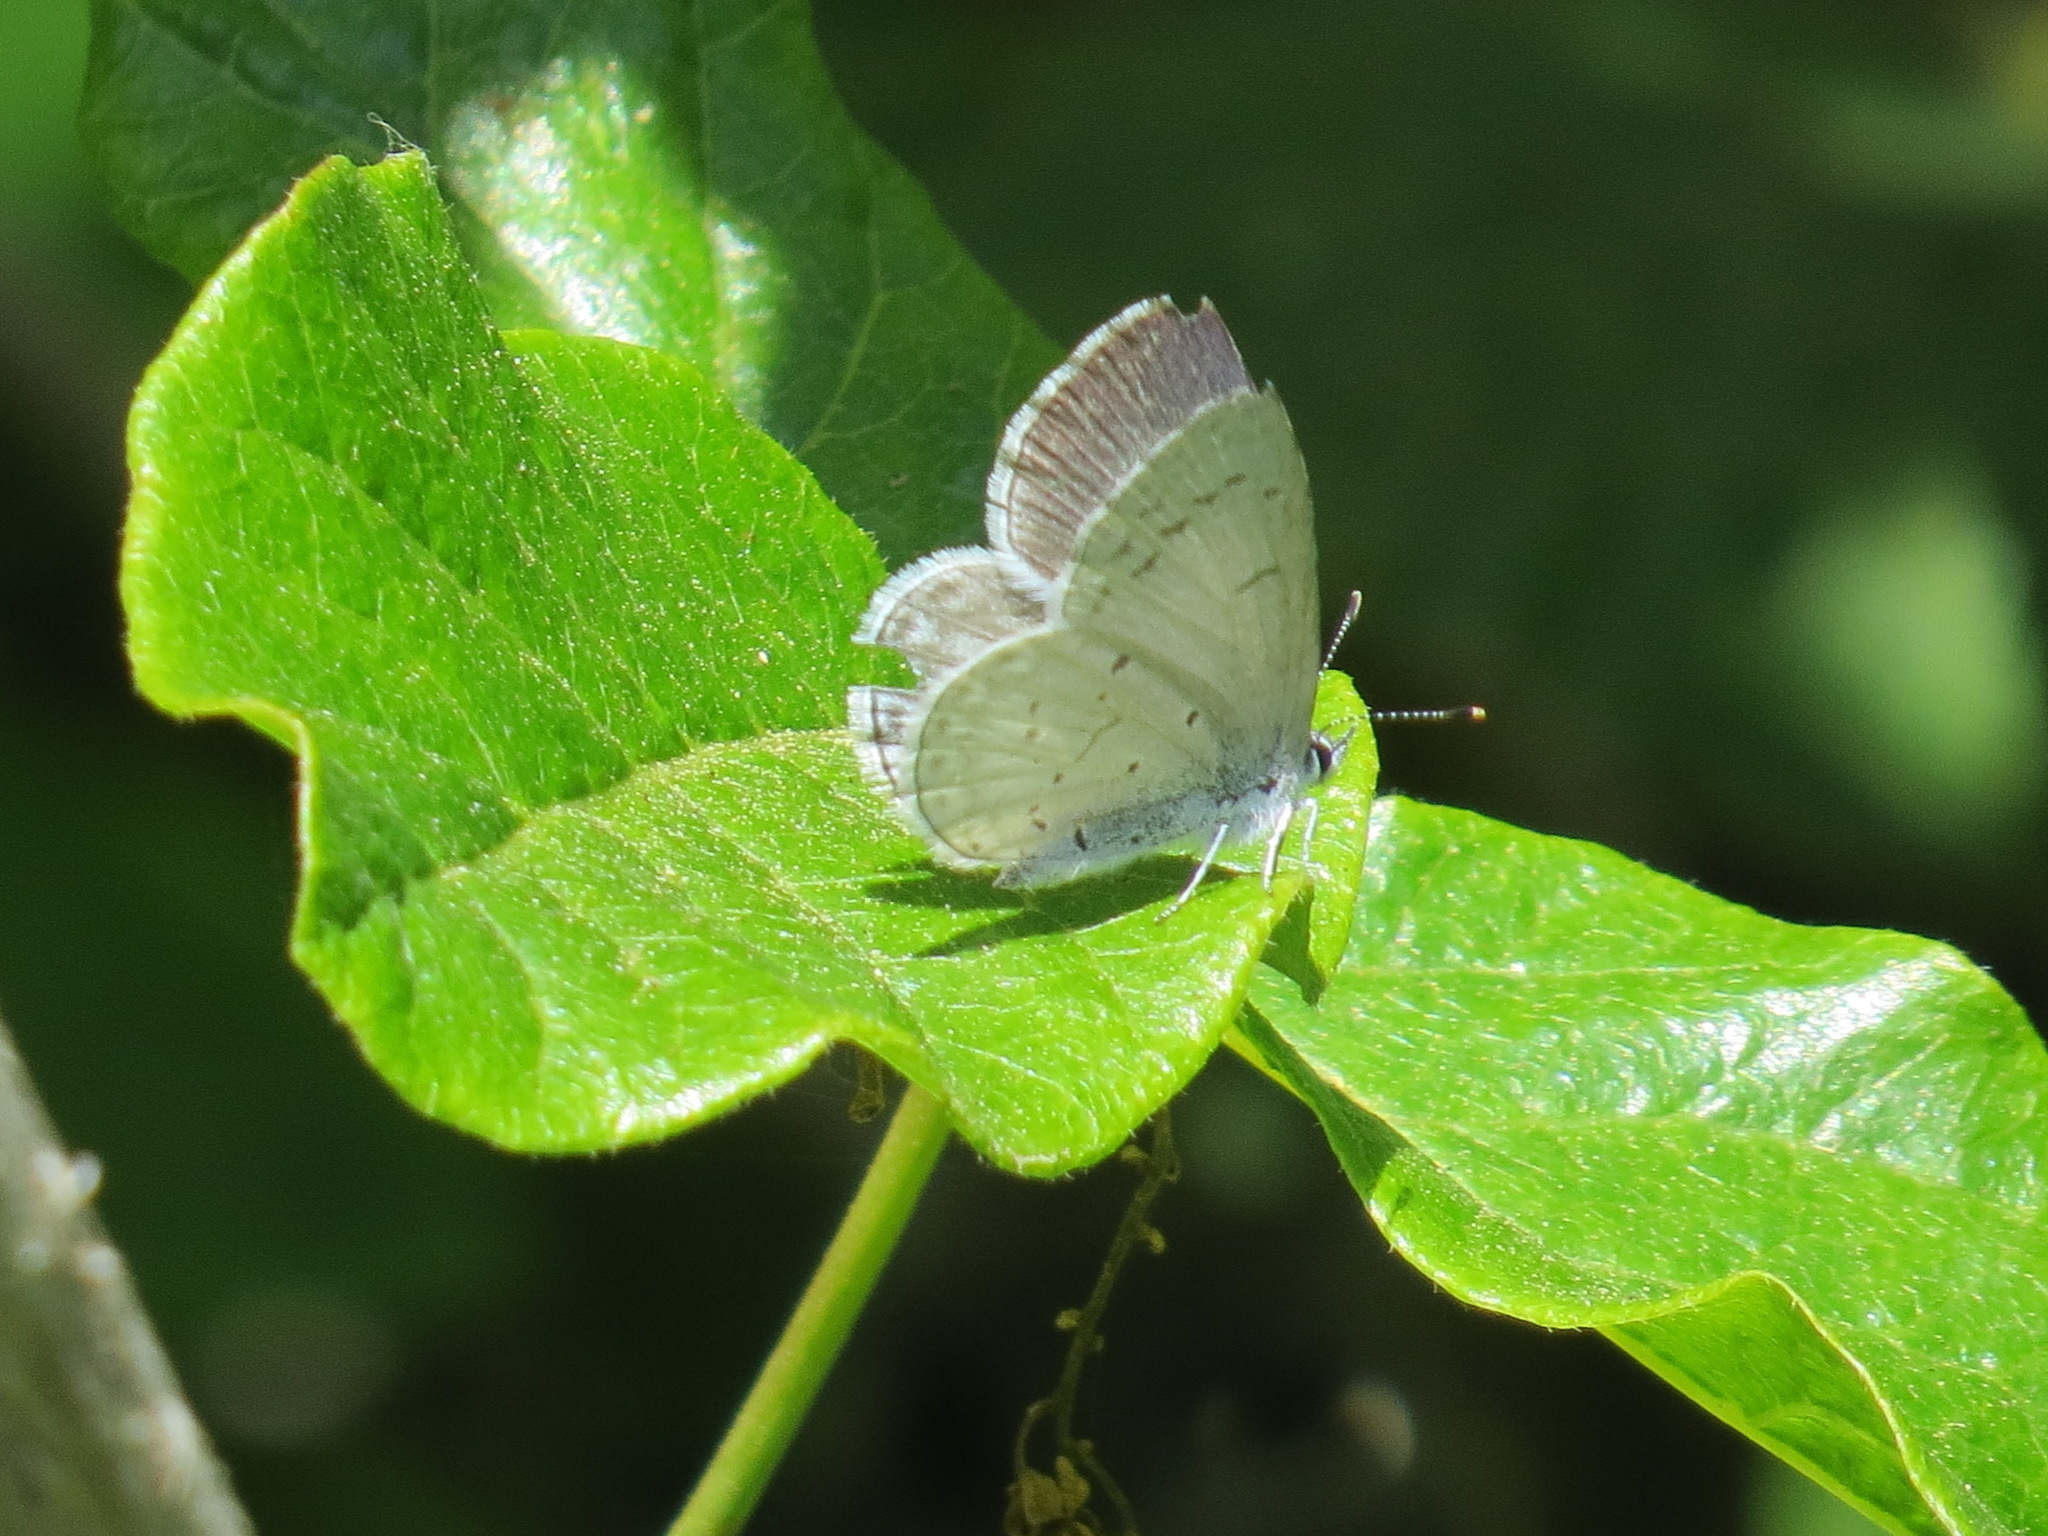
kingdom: Animalia
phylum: Arthropoda
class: Insecta
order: Lepidoptera
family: Lycaenidae
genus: Celastrina
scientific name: Celastrina ladon
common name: Spring azure
